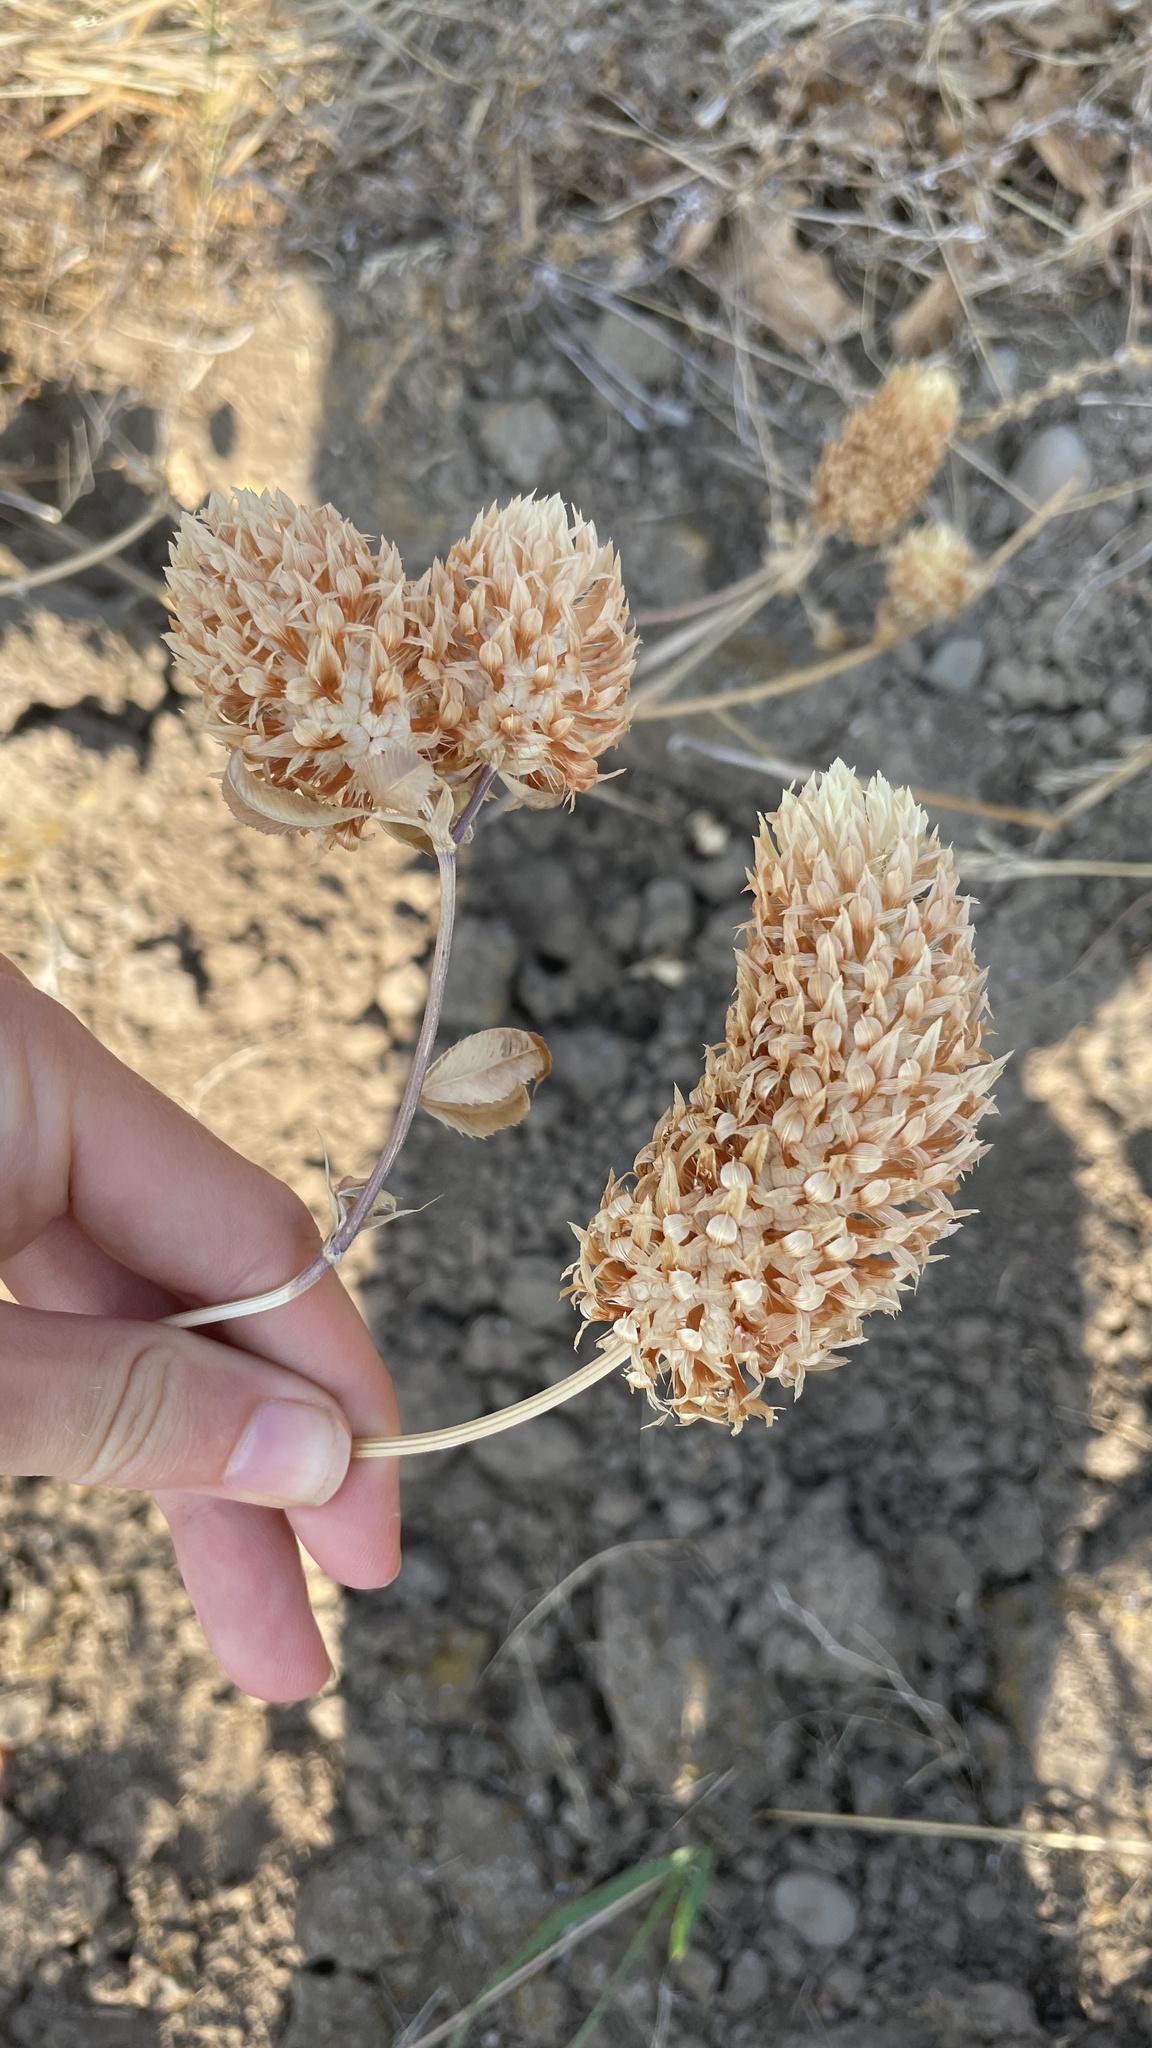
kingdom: Plantae
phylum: Tracheophyta
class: Magnoliopsida
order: Fabales
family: Fabaceae
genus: Trifolium
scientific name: Trifolium vesiculosum
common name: Arrowleaf clover
